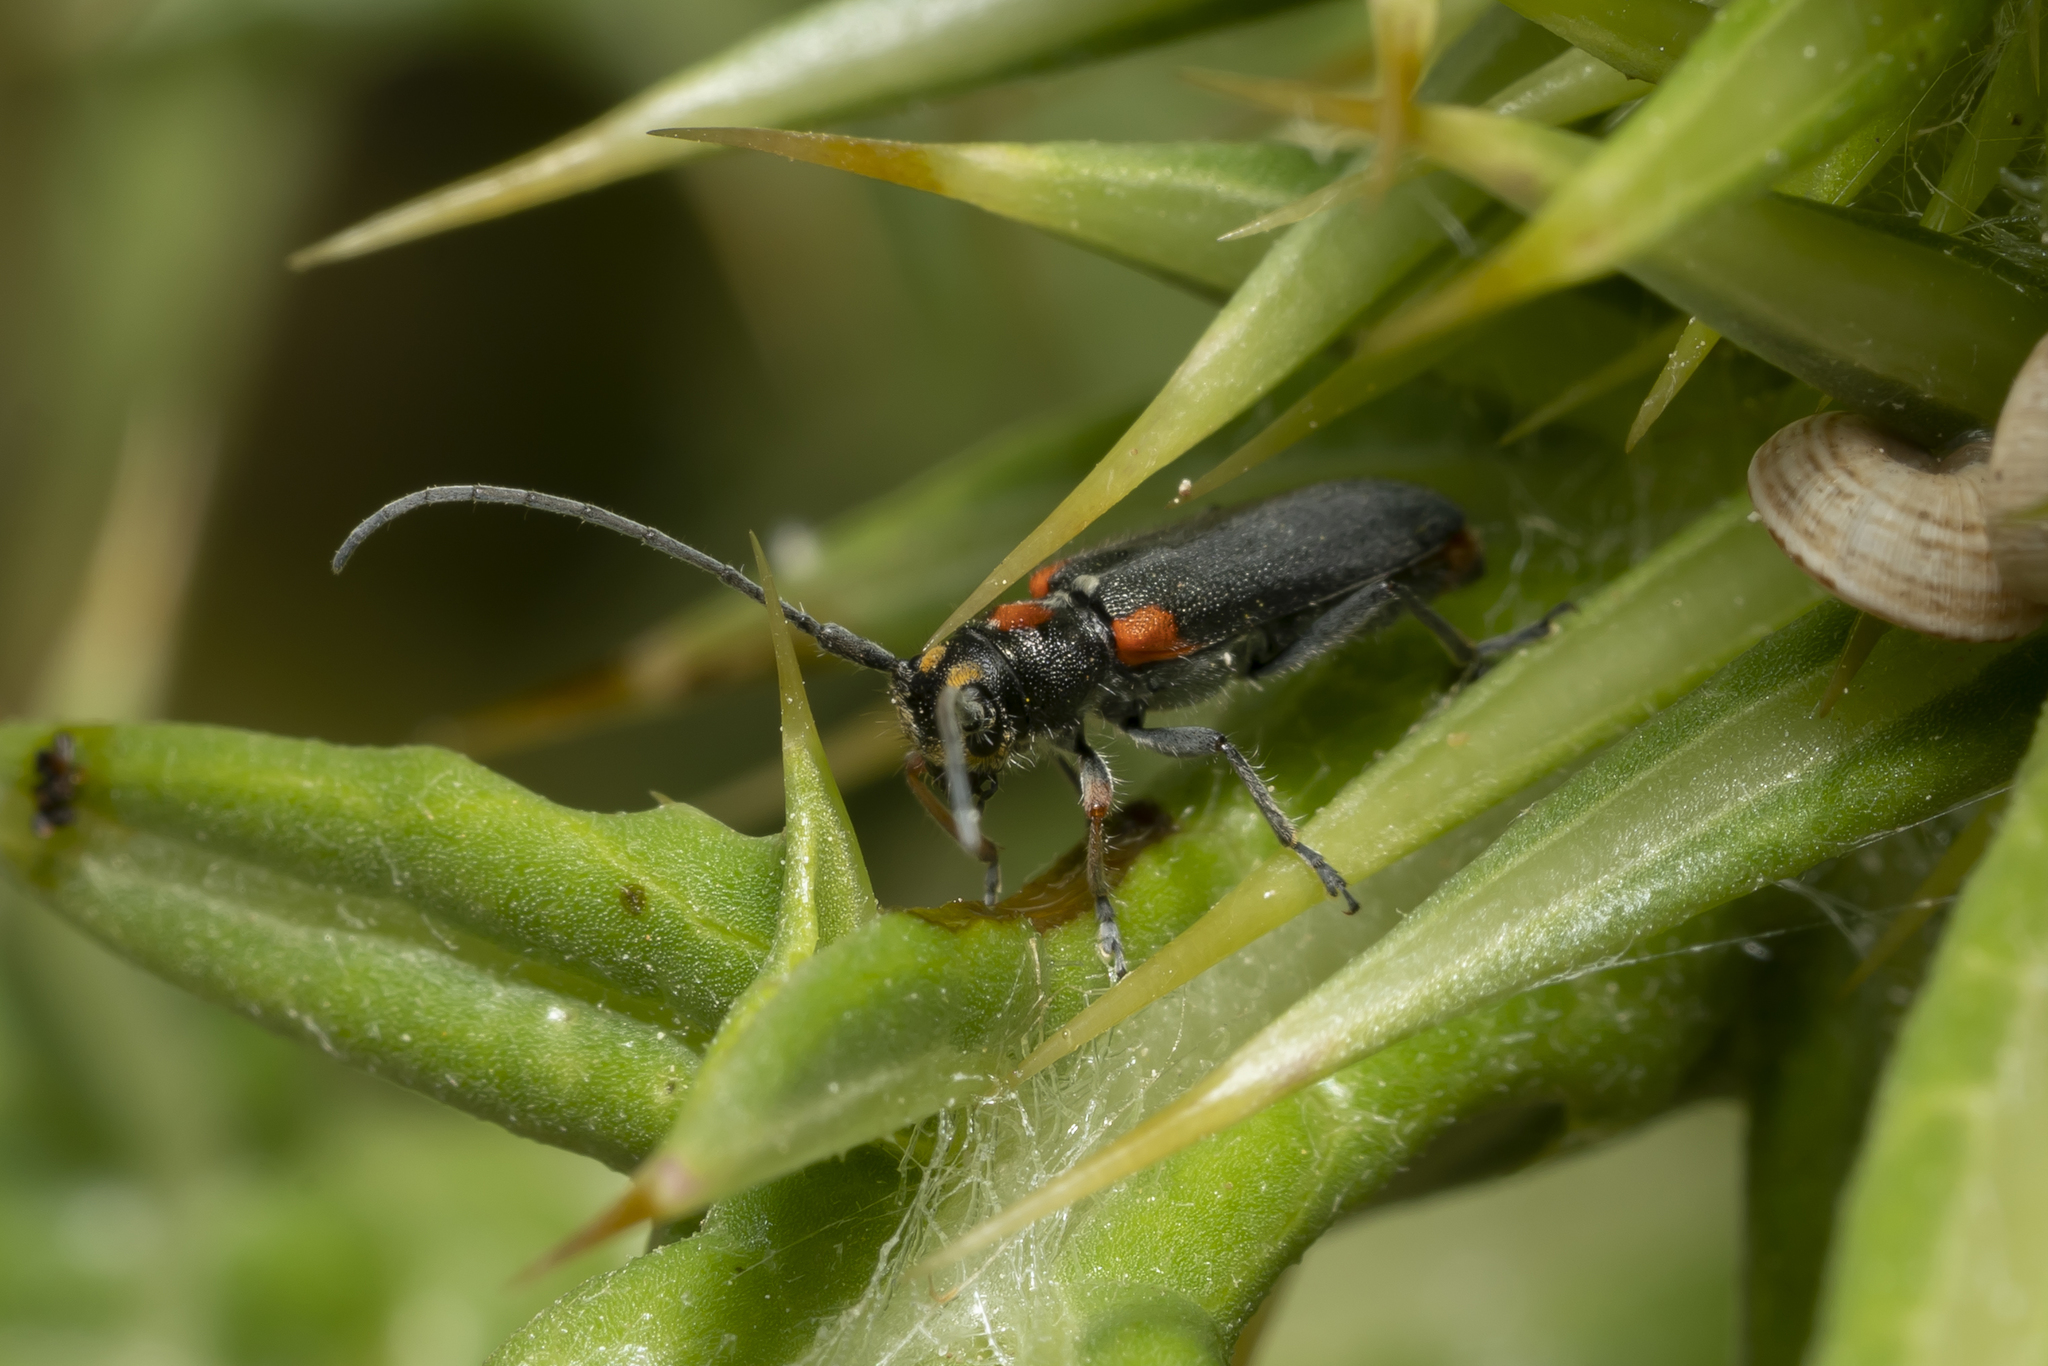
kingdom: Animalia
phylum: Arthropoda
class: Insecta
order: Coleoptera
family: Cerambycidae
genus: Phytoecia
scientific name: Phytoecia humeralis
